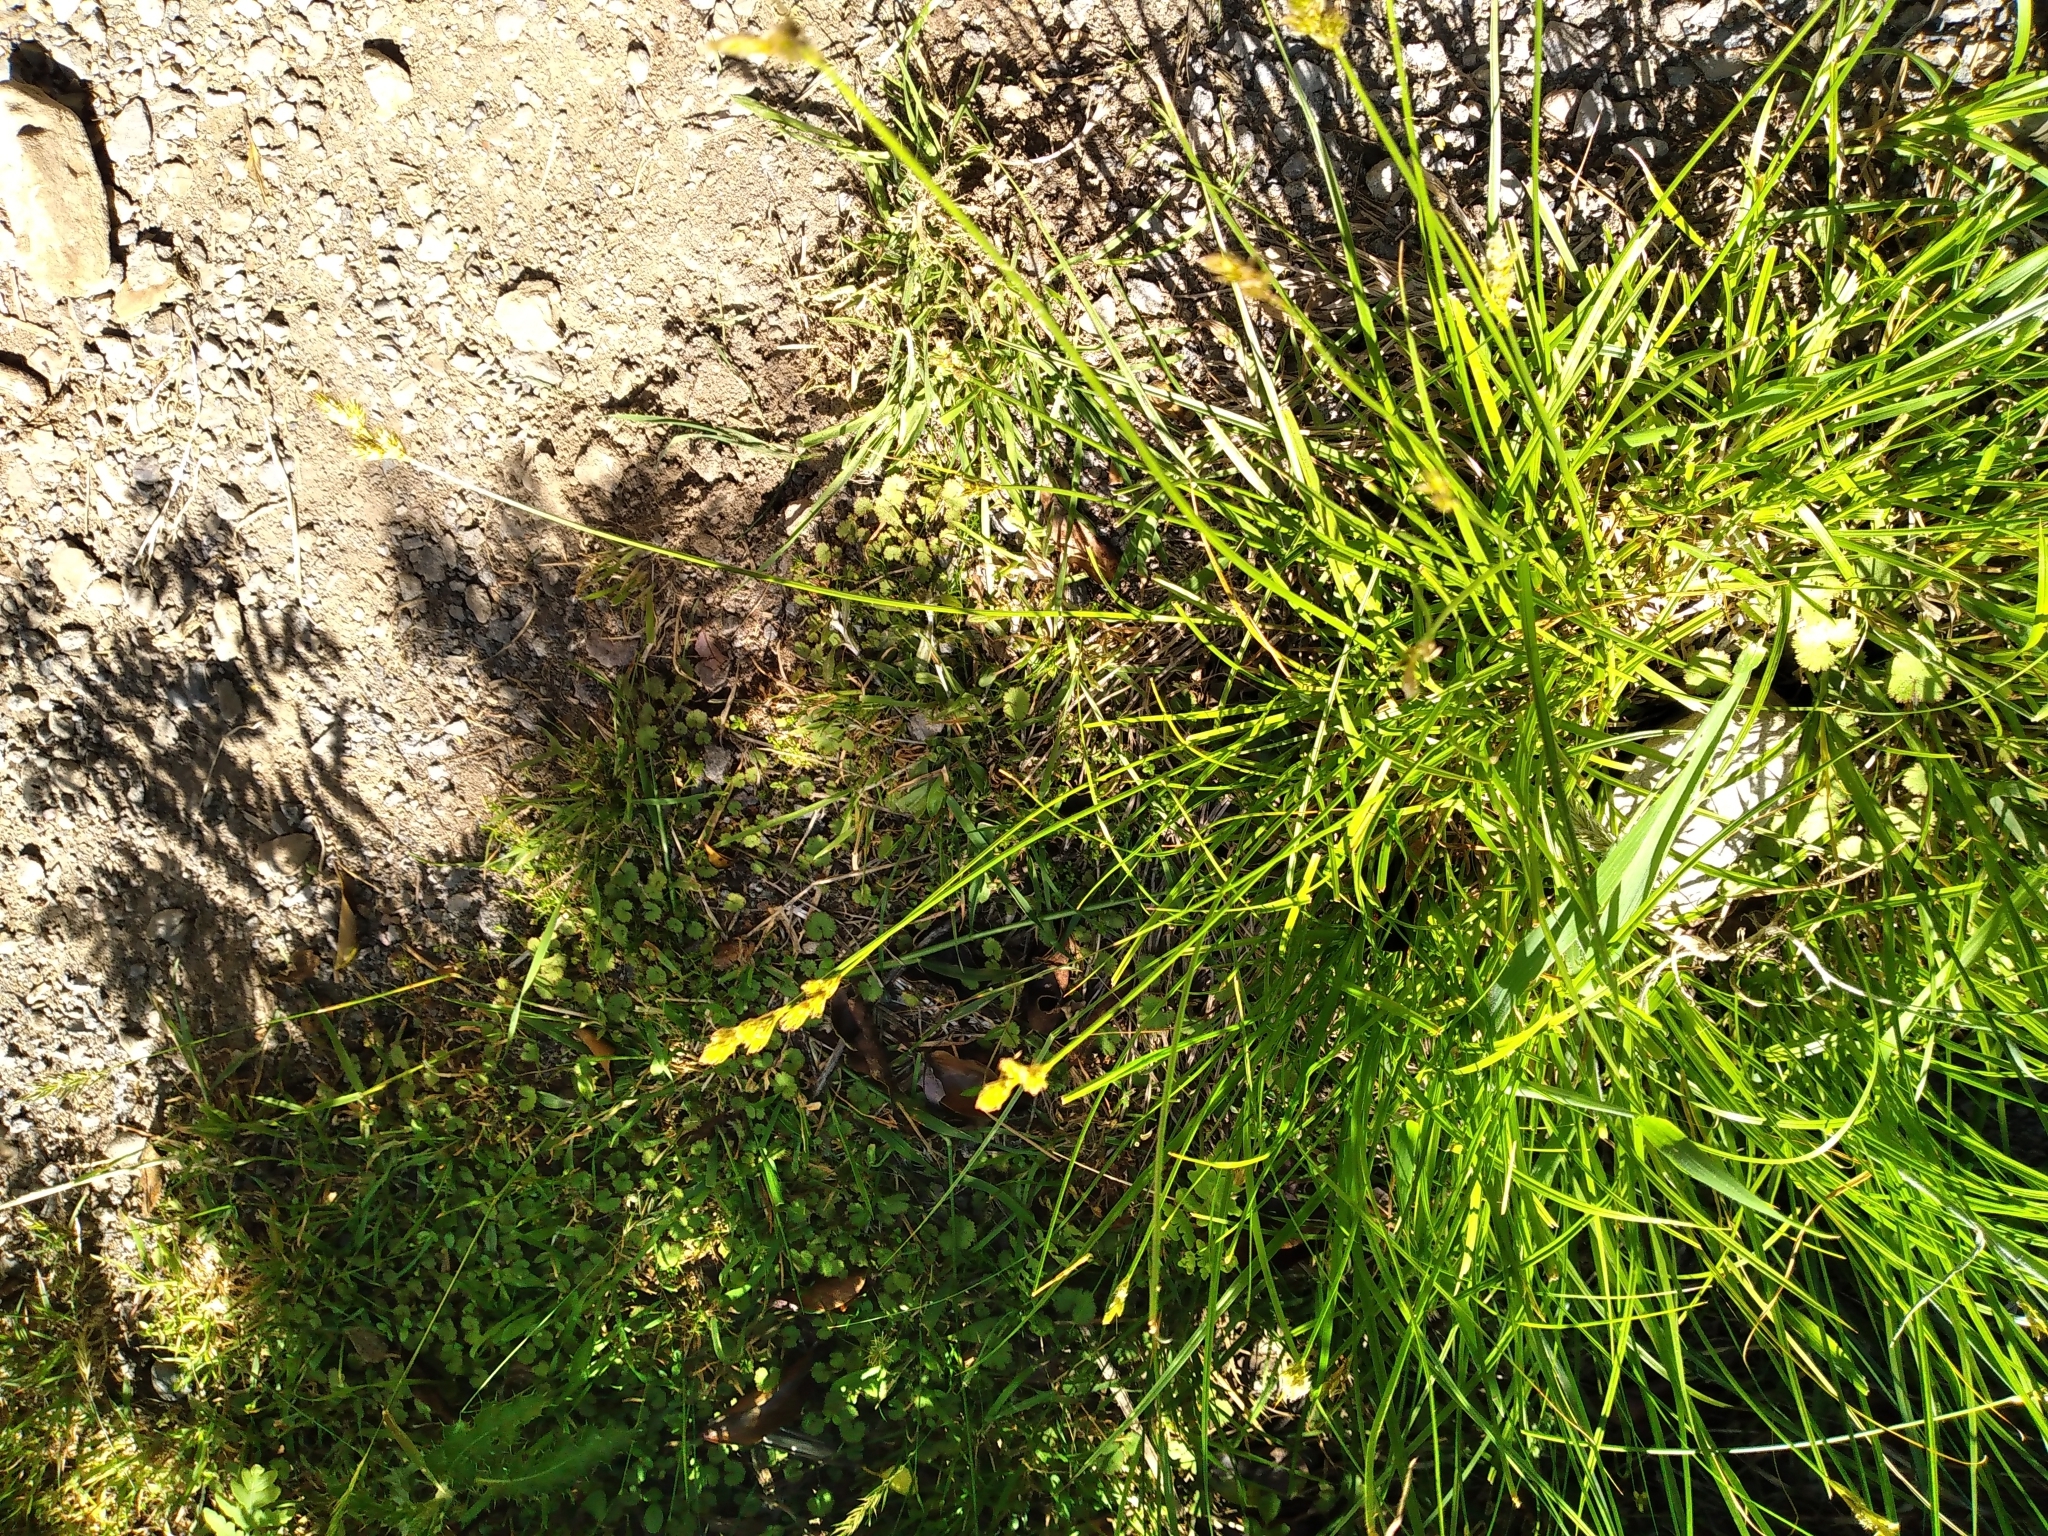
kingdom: Plantae
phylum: Tracheophyta
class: Liliopsida
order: Poales
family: Cyperaceae
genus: Carex
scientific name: Carex leporina
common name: Oval sedge
